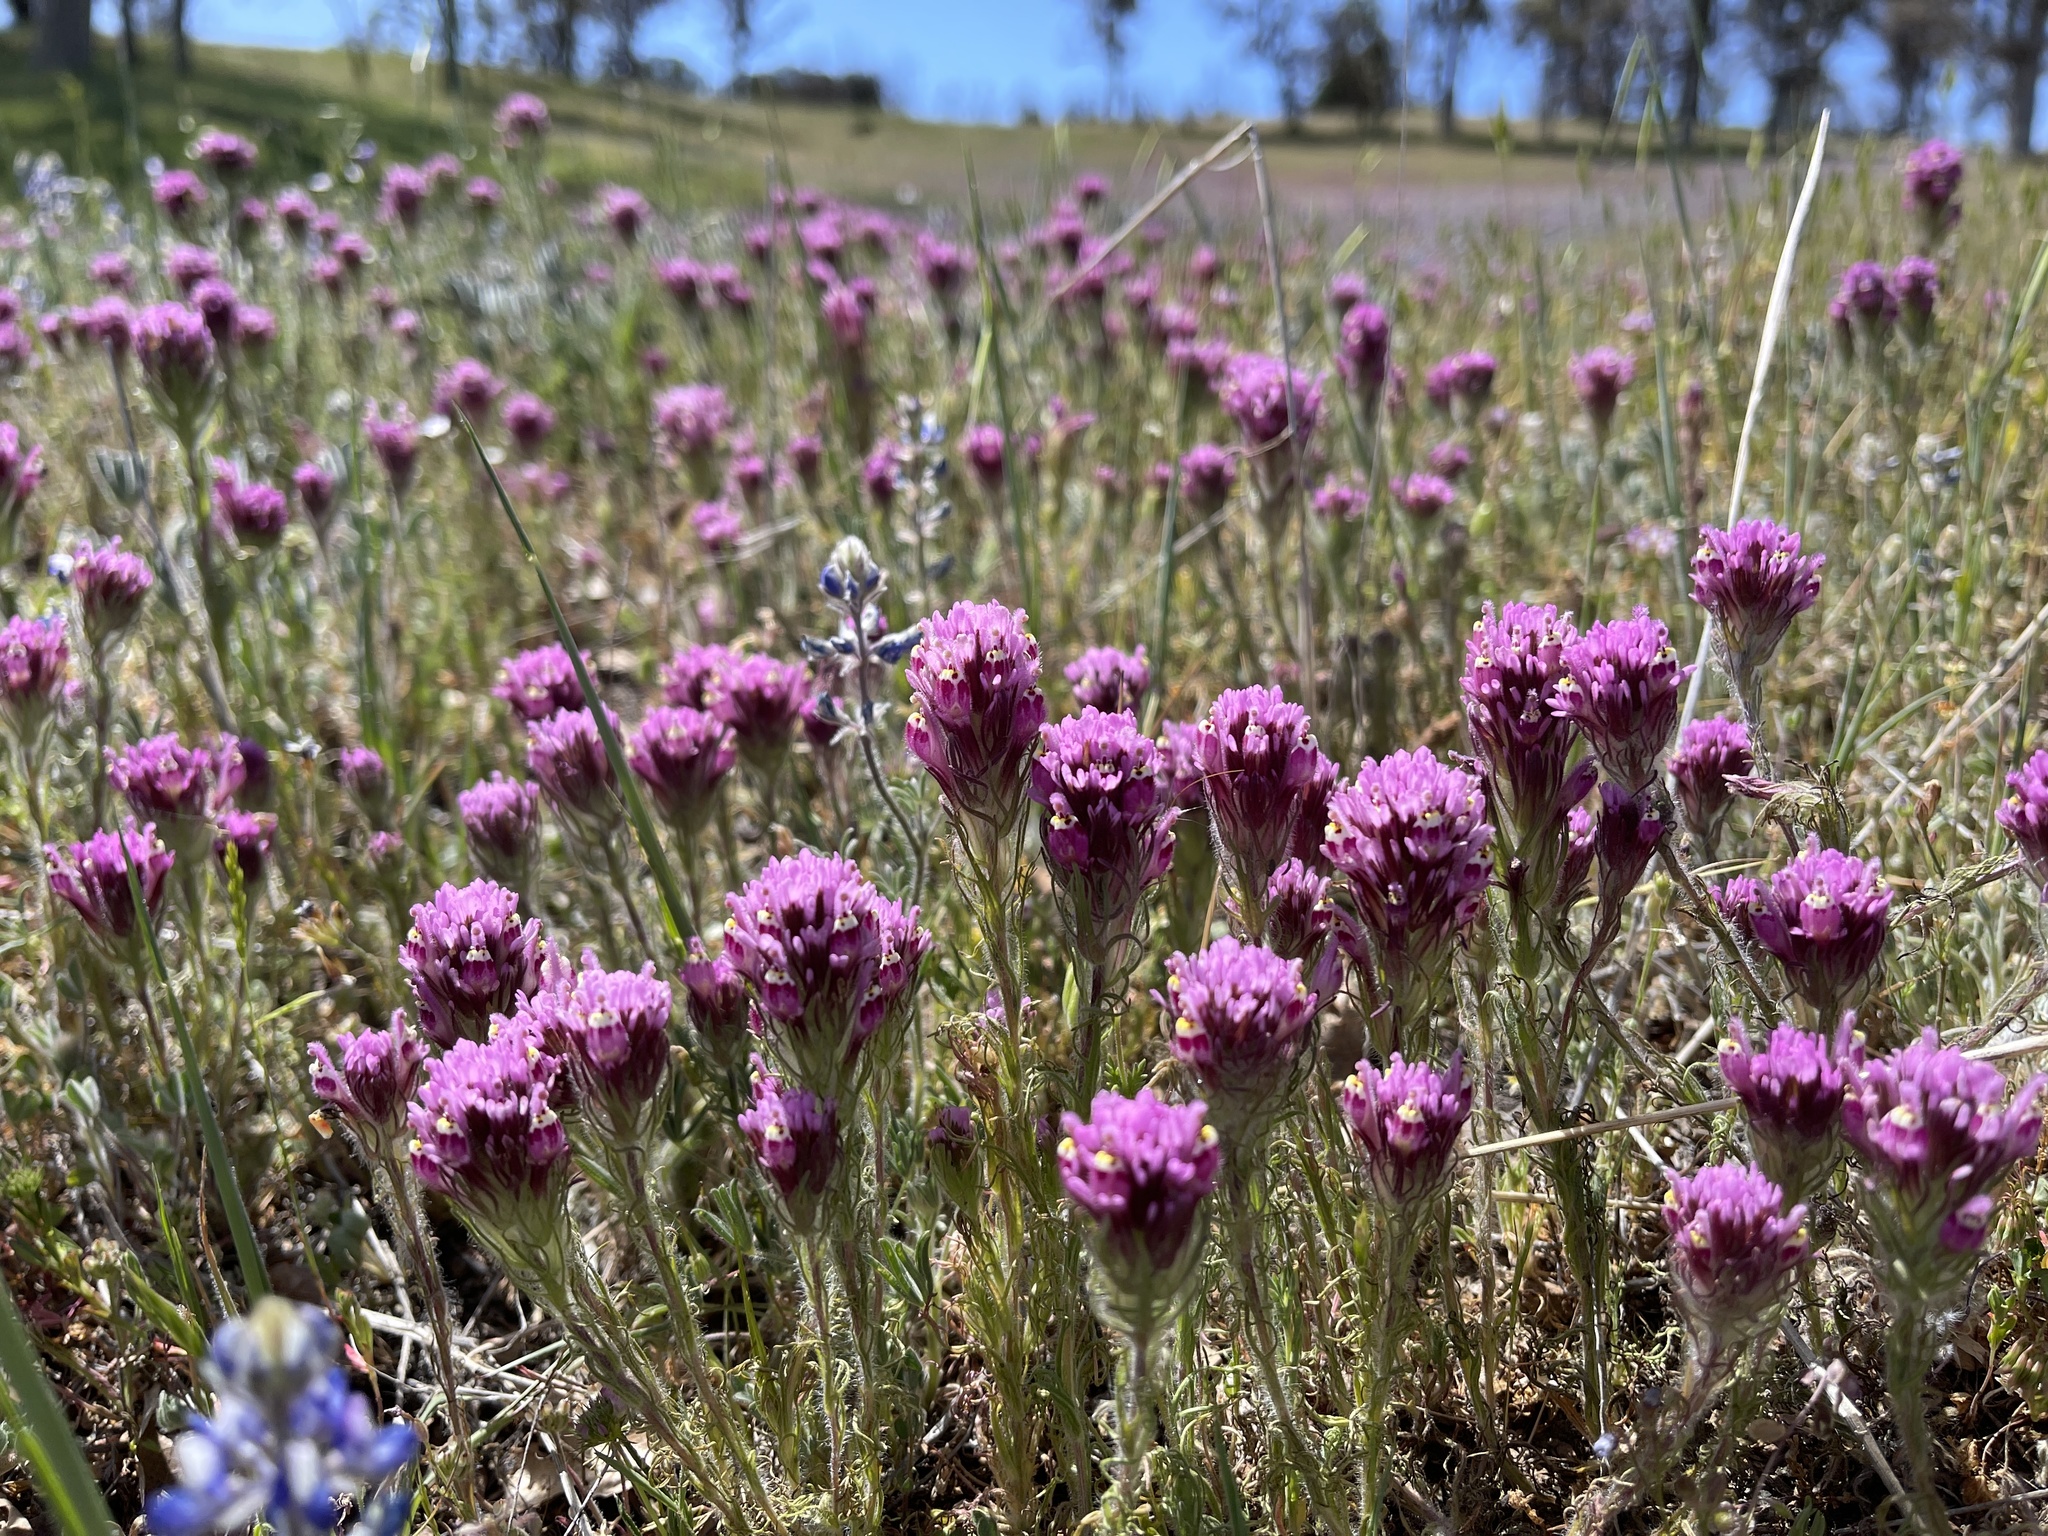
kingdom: Plantae
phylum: Tracheophyta
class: Magnoliopsida
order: Lamiales
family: Orobanchaceae
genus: Castilleja
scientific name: Castilleja exserta
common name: Purple owl-clover
